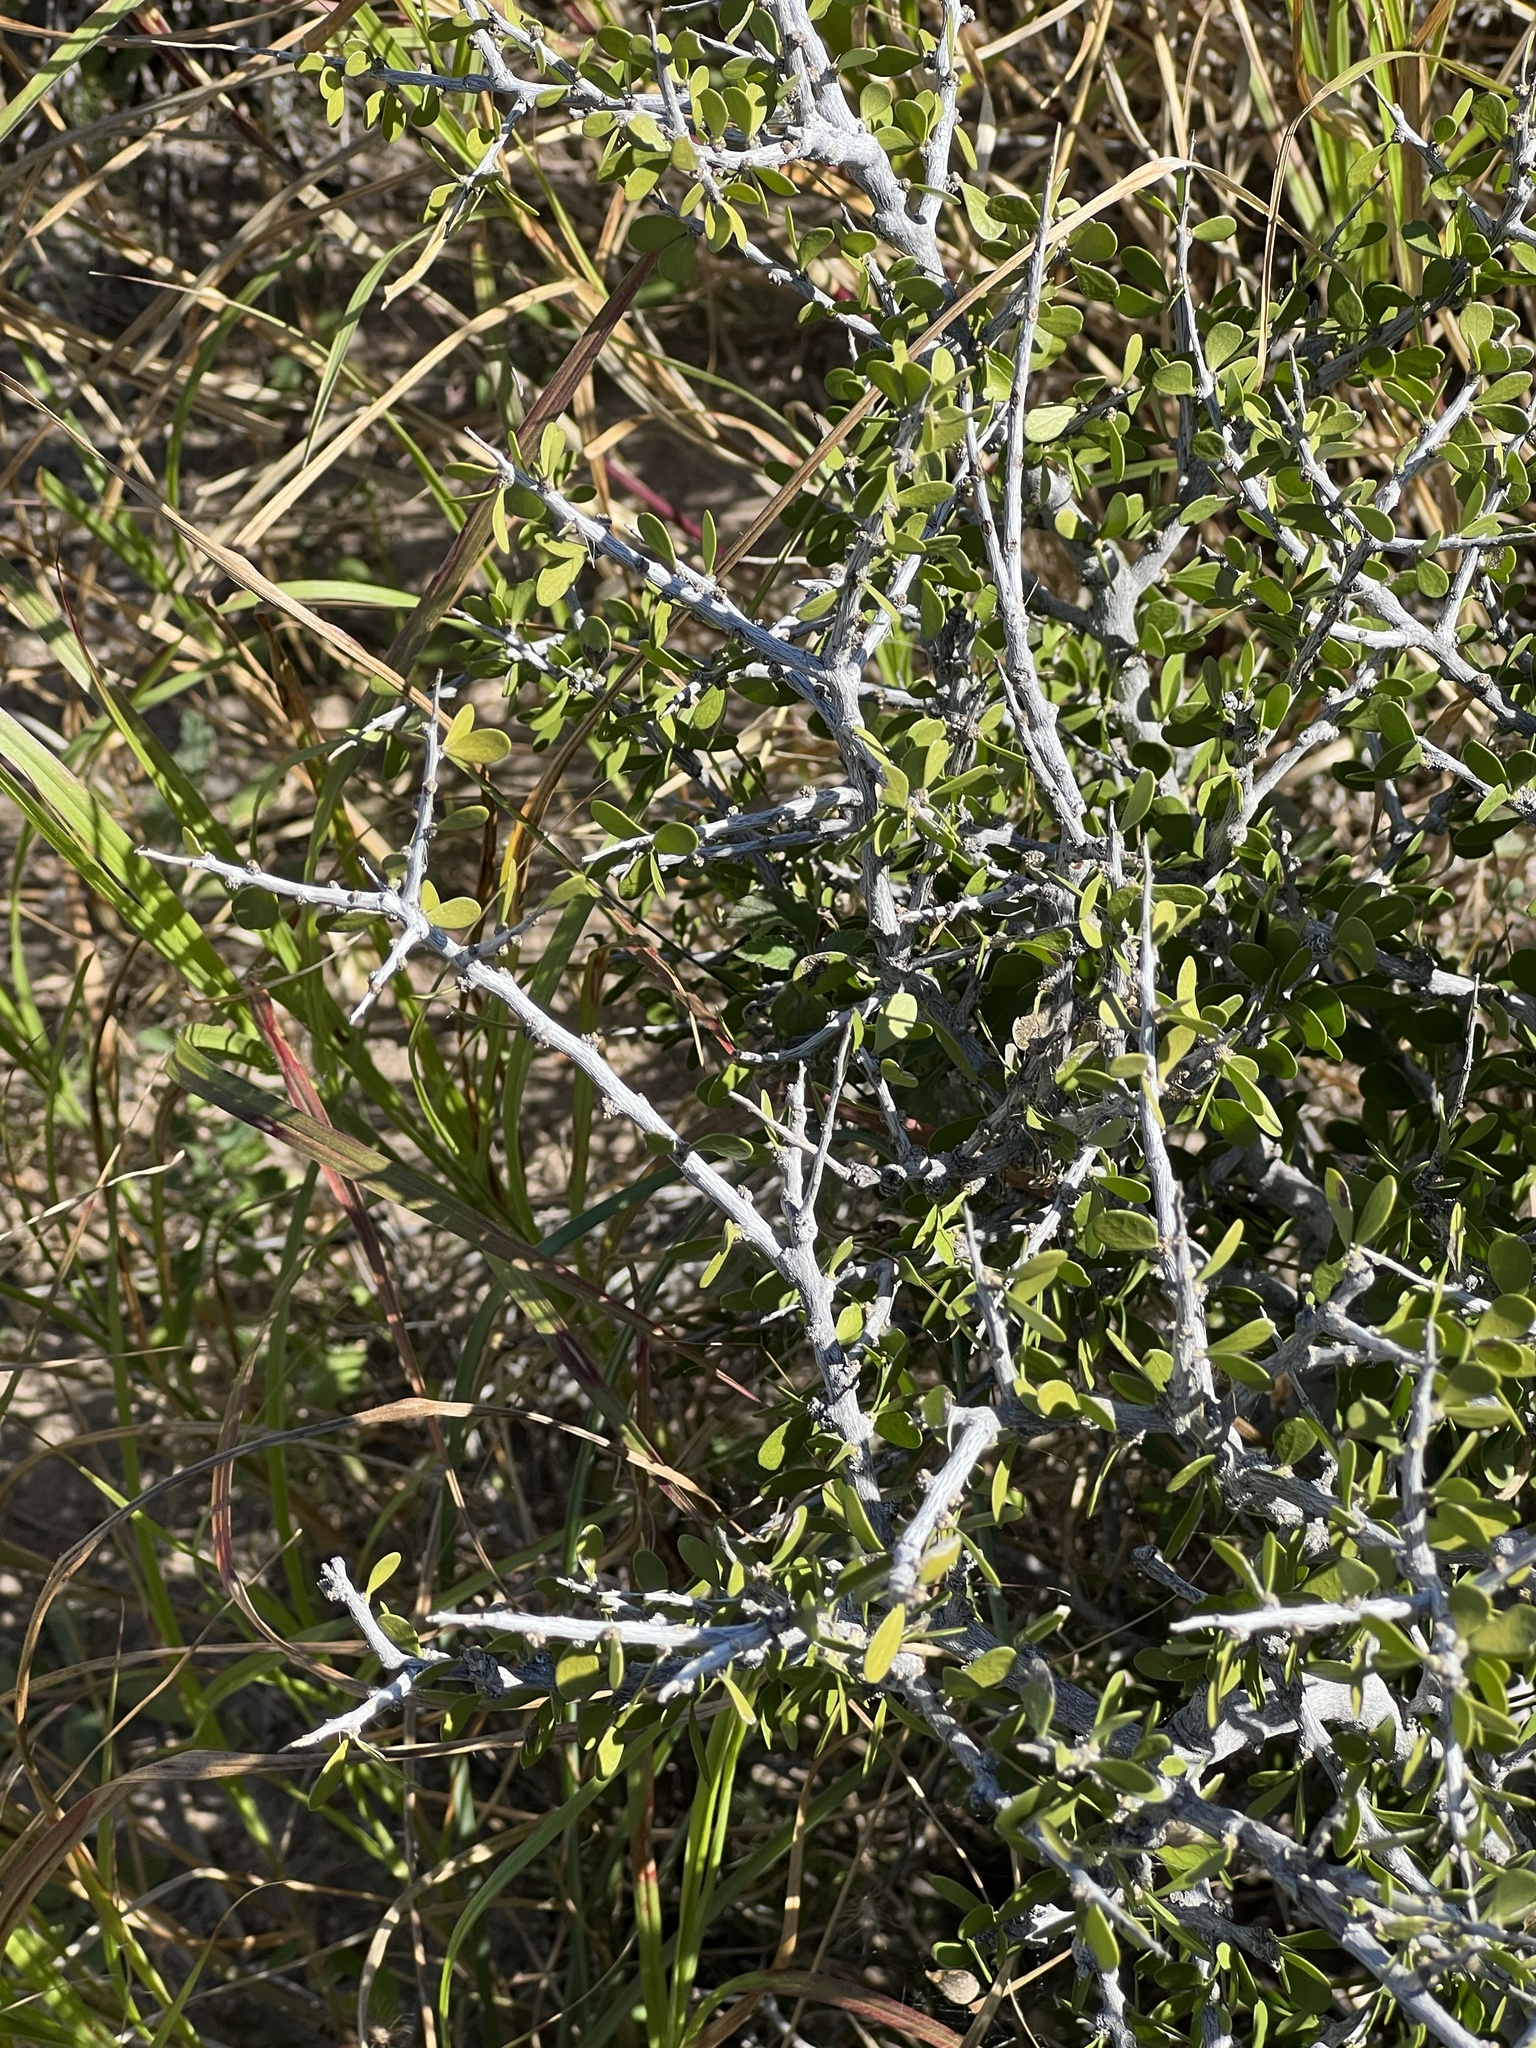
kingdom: Plantae
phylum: Tracheophyta
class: Magnoliopsida
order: Celastrales
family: Celastraceae
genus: Schaefferia
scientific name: Schaefferia cuneifolia
